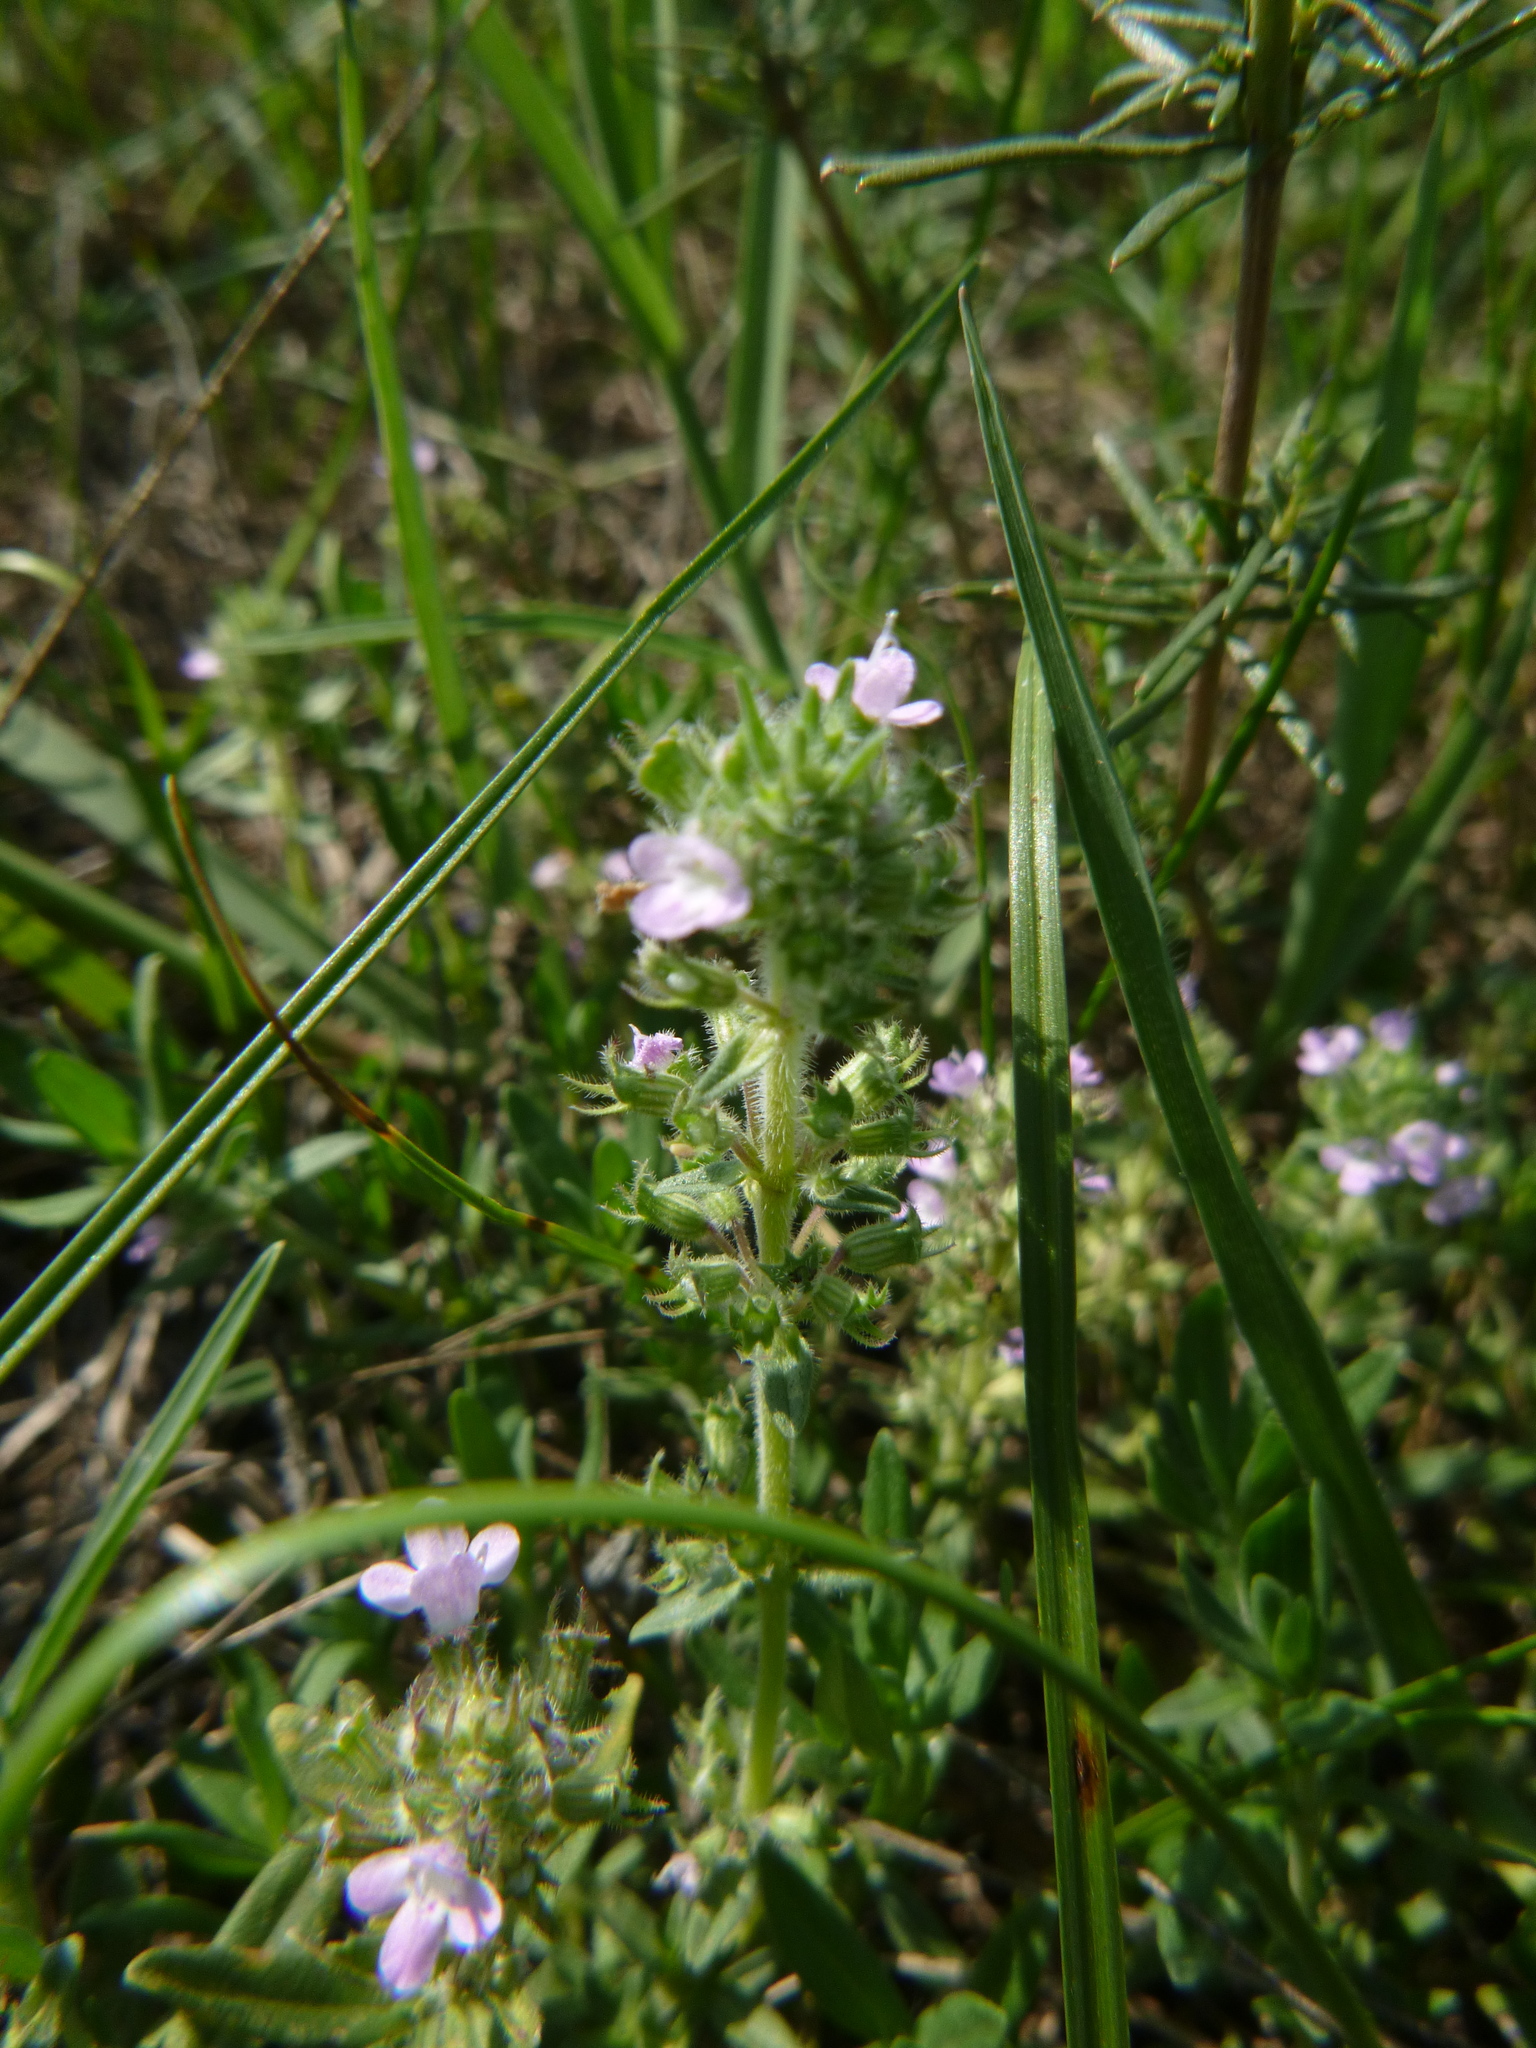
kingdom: Plantae
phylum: Tracheophyta
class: Magnoliopsida
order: Lamiales
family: Lamiaceae
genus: Thymus
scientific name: Thymus kosteleckyanus
